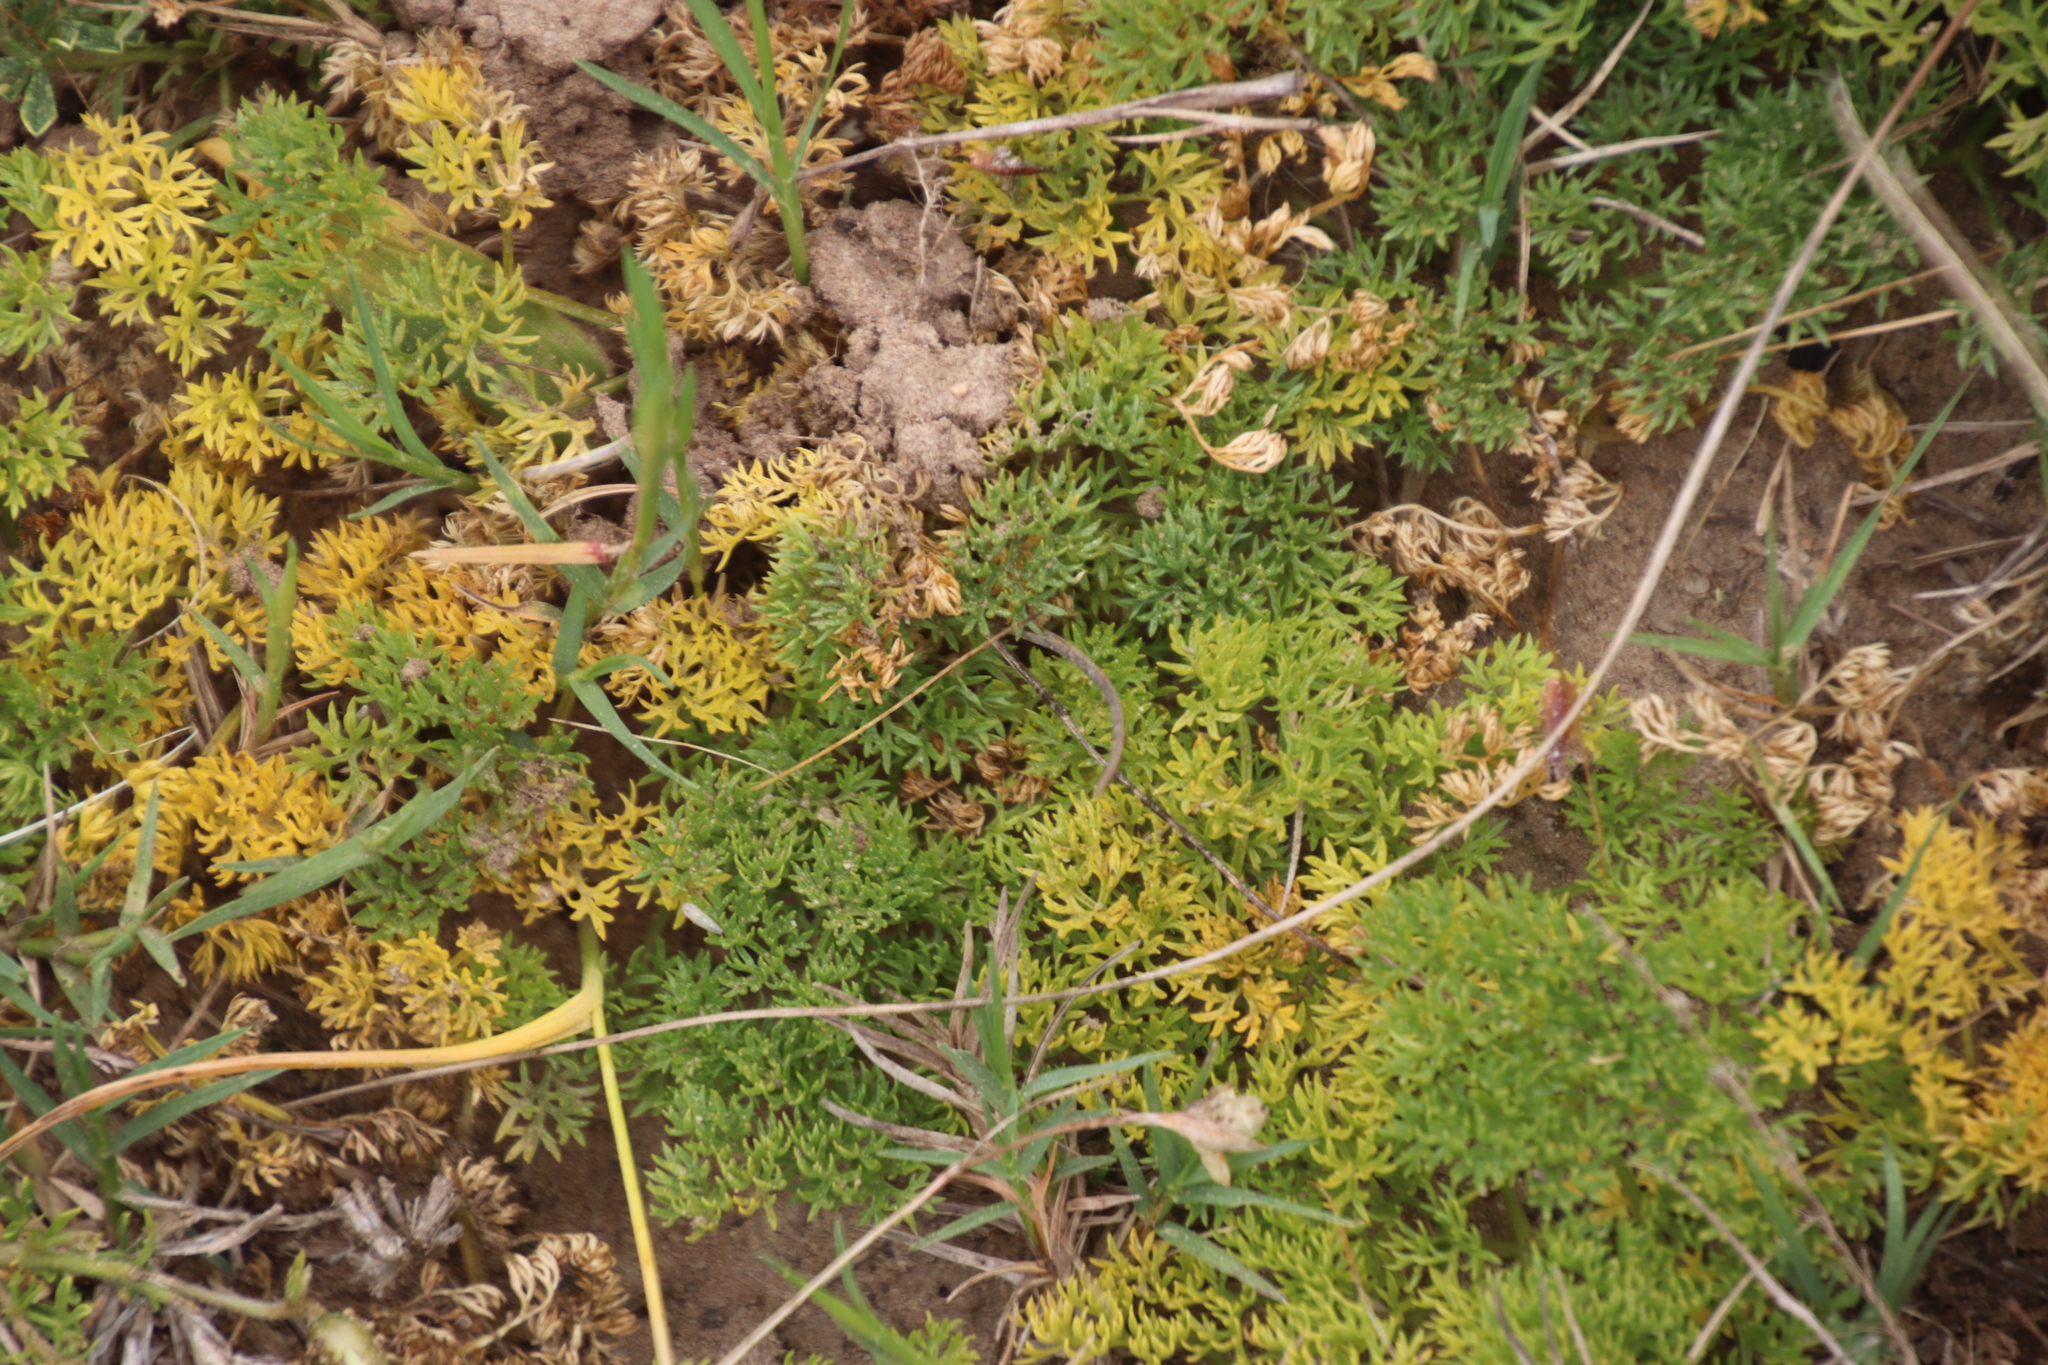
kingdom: Plantae
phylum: Tracheophyta
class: Magnoliopsida
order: Apiales
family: Apiaceae
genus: Annesorhiza
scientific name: Annesorhiza macrocarpa
